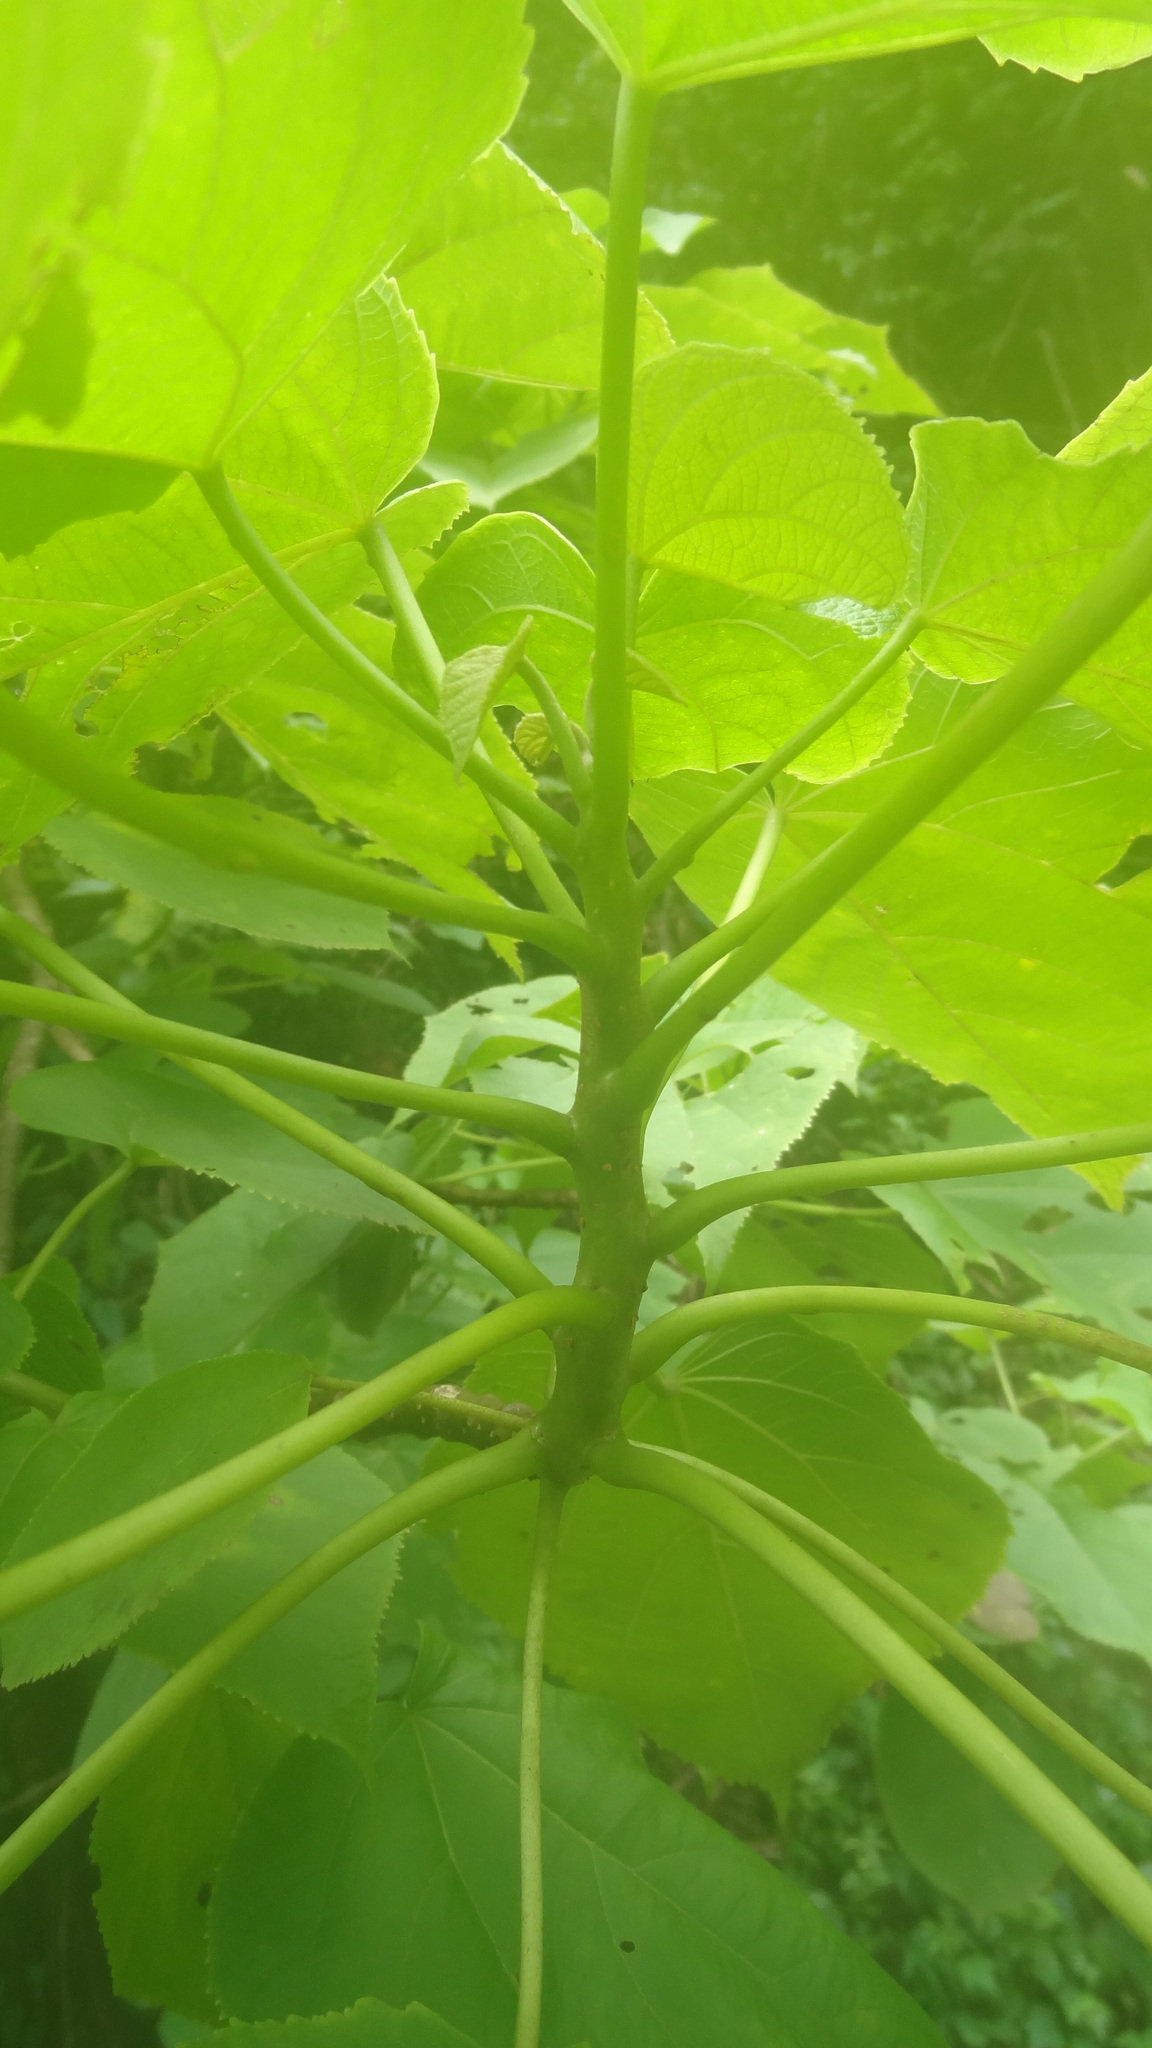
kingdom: Plantae
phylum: Tracheophyta
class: Magnoliopsida
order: Cucurbitales
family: Tetramelaceae
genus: Tetrameles
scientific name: Tetrameles nudiflora
